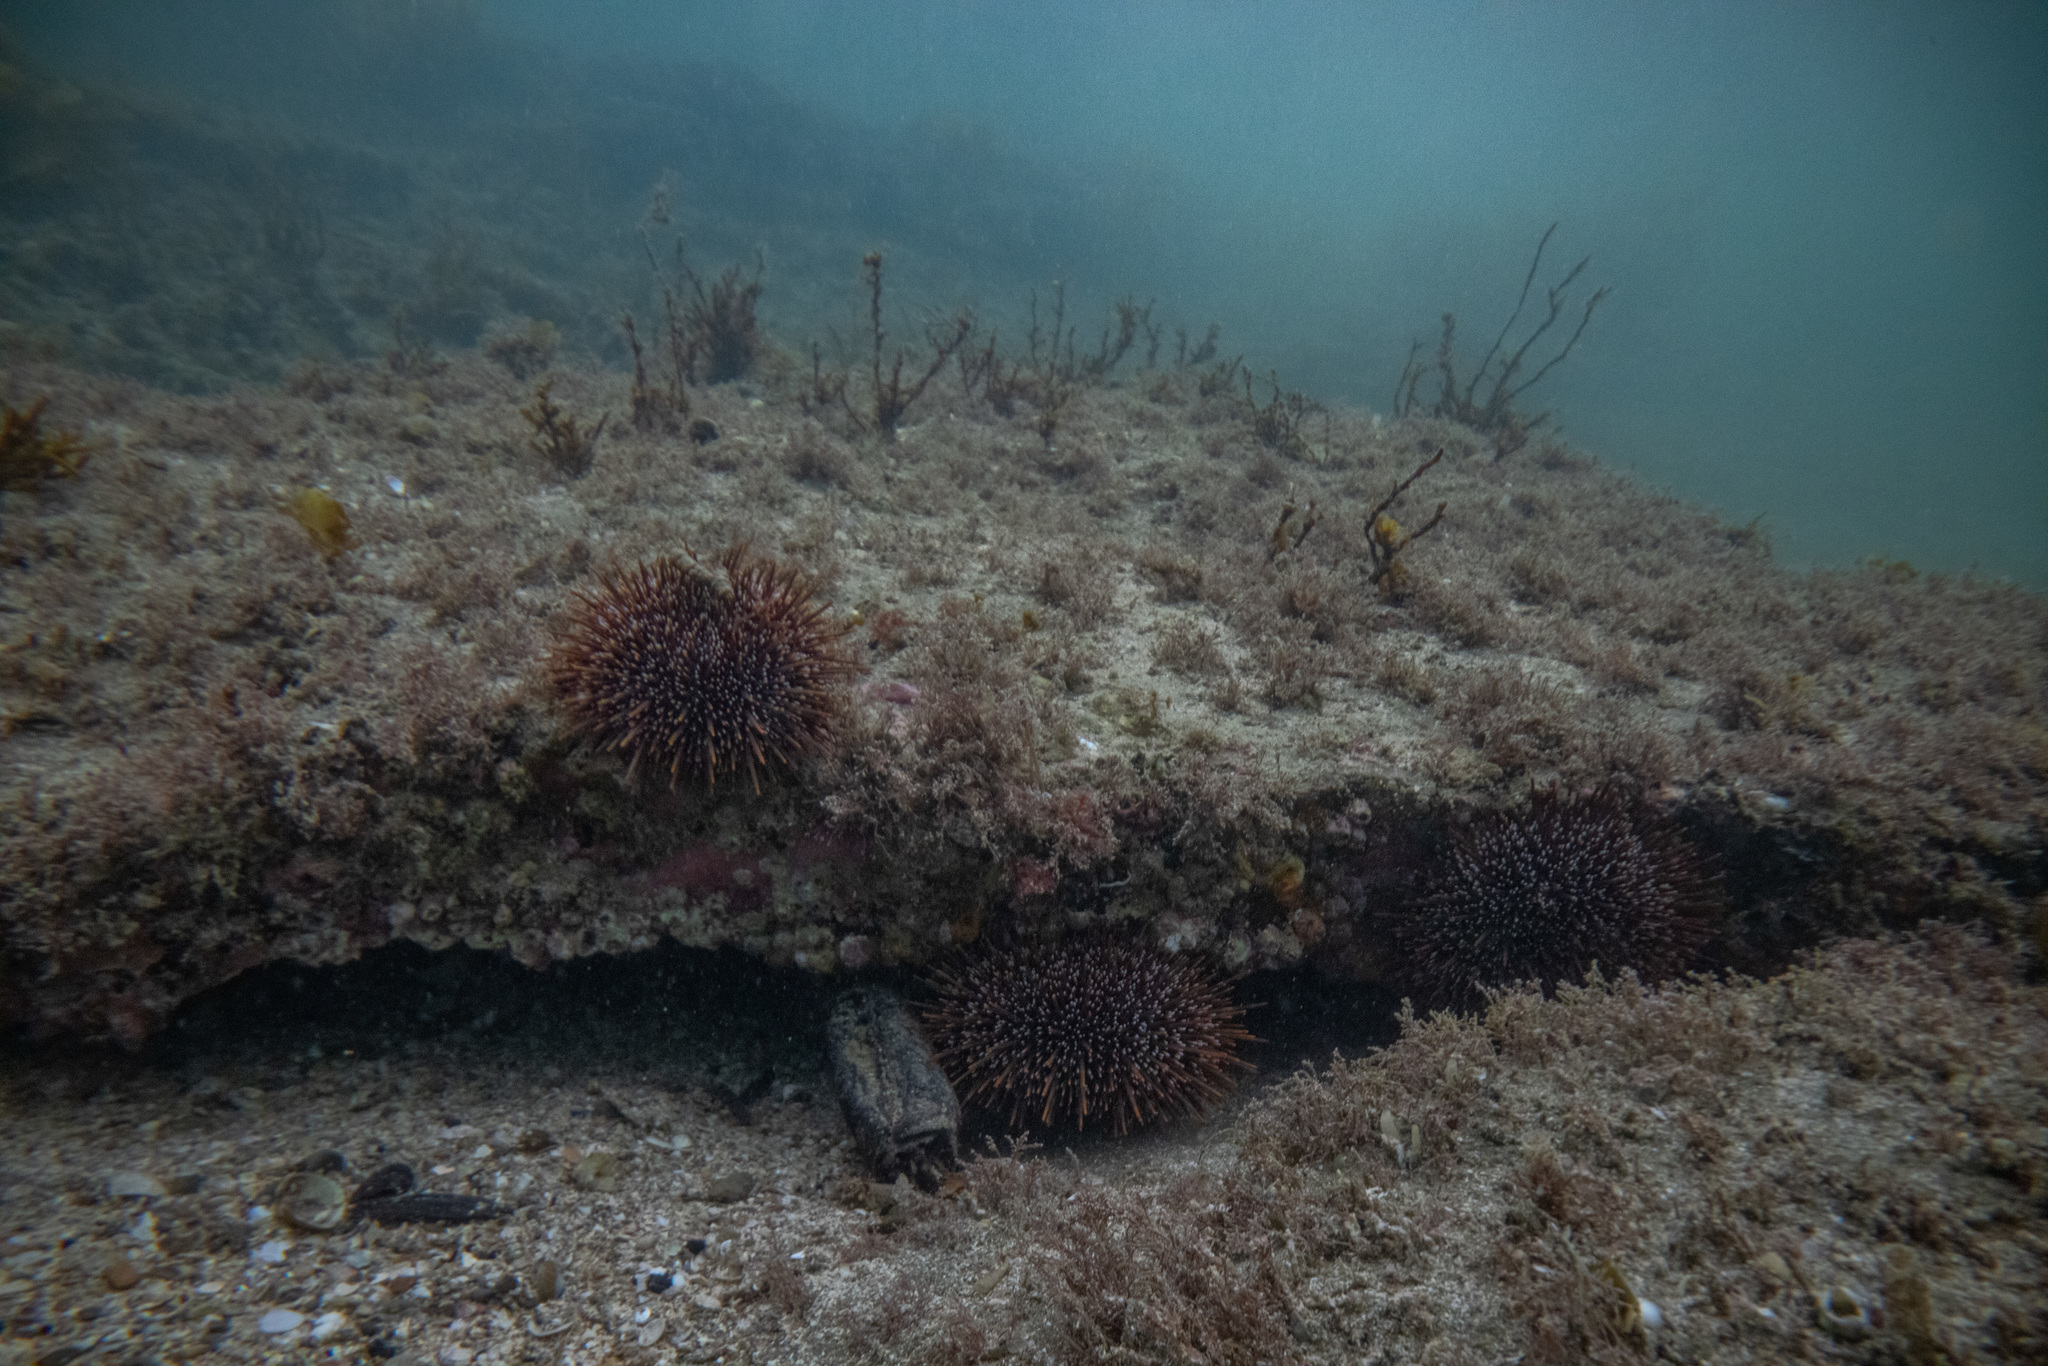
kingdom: Animalia
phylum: Echinodermata
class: Echinoidea
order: Camarodonta
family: Echinometridae
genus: Evechinus
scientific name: Evechinus chloroticus
